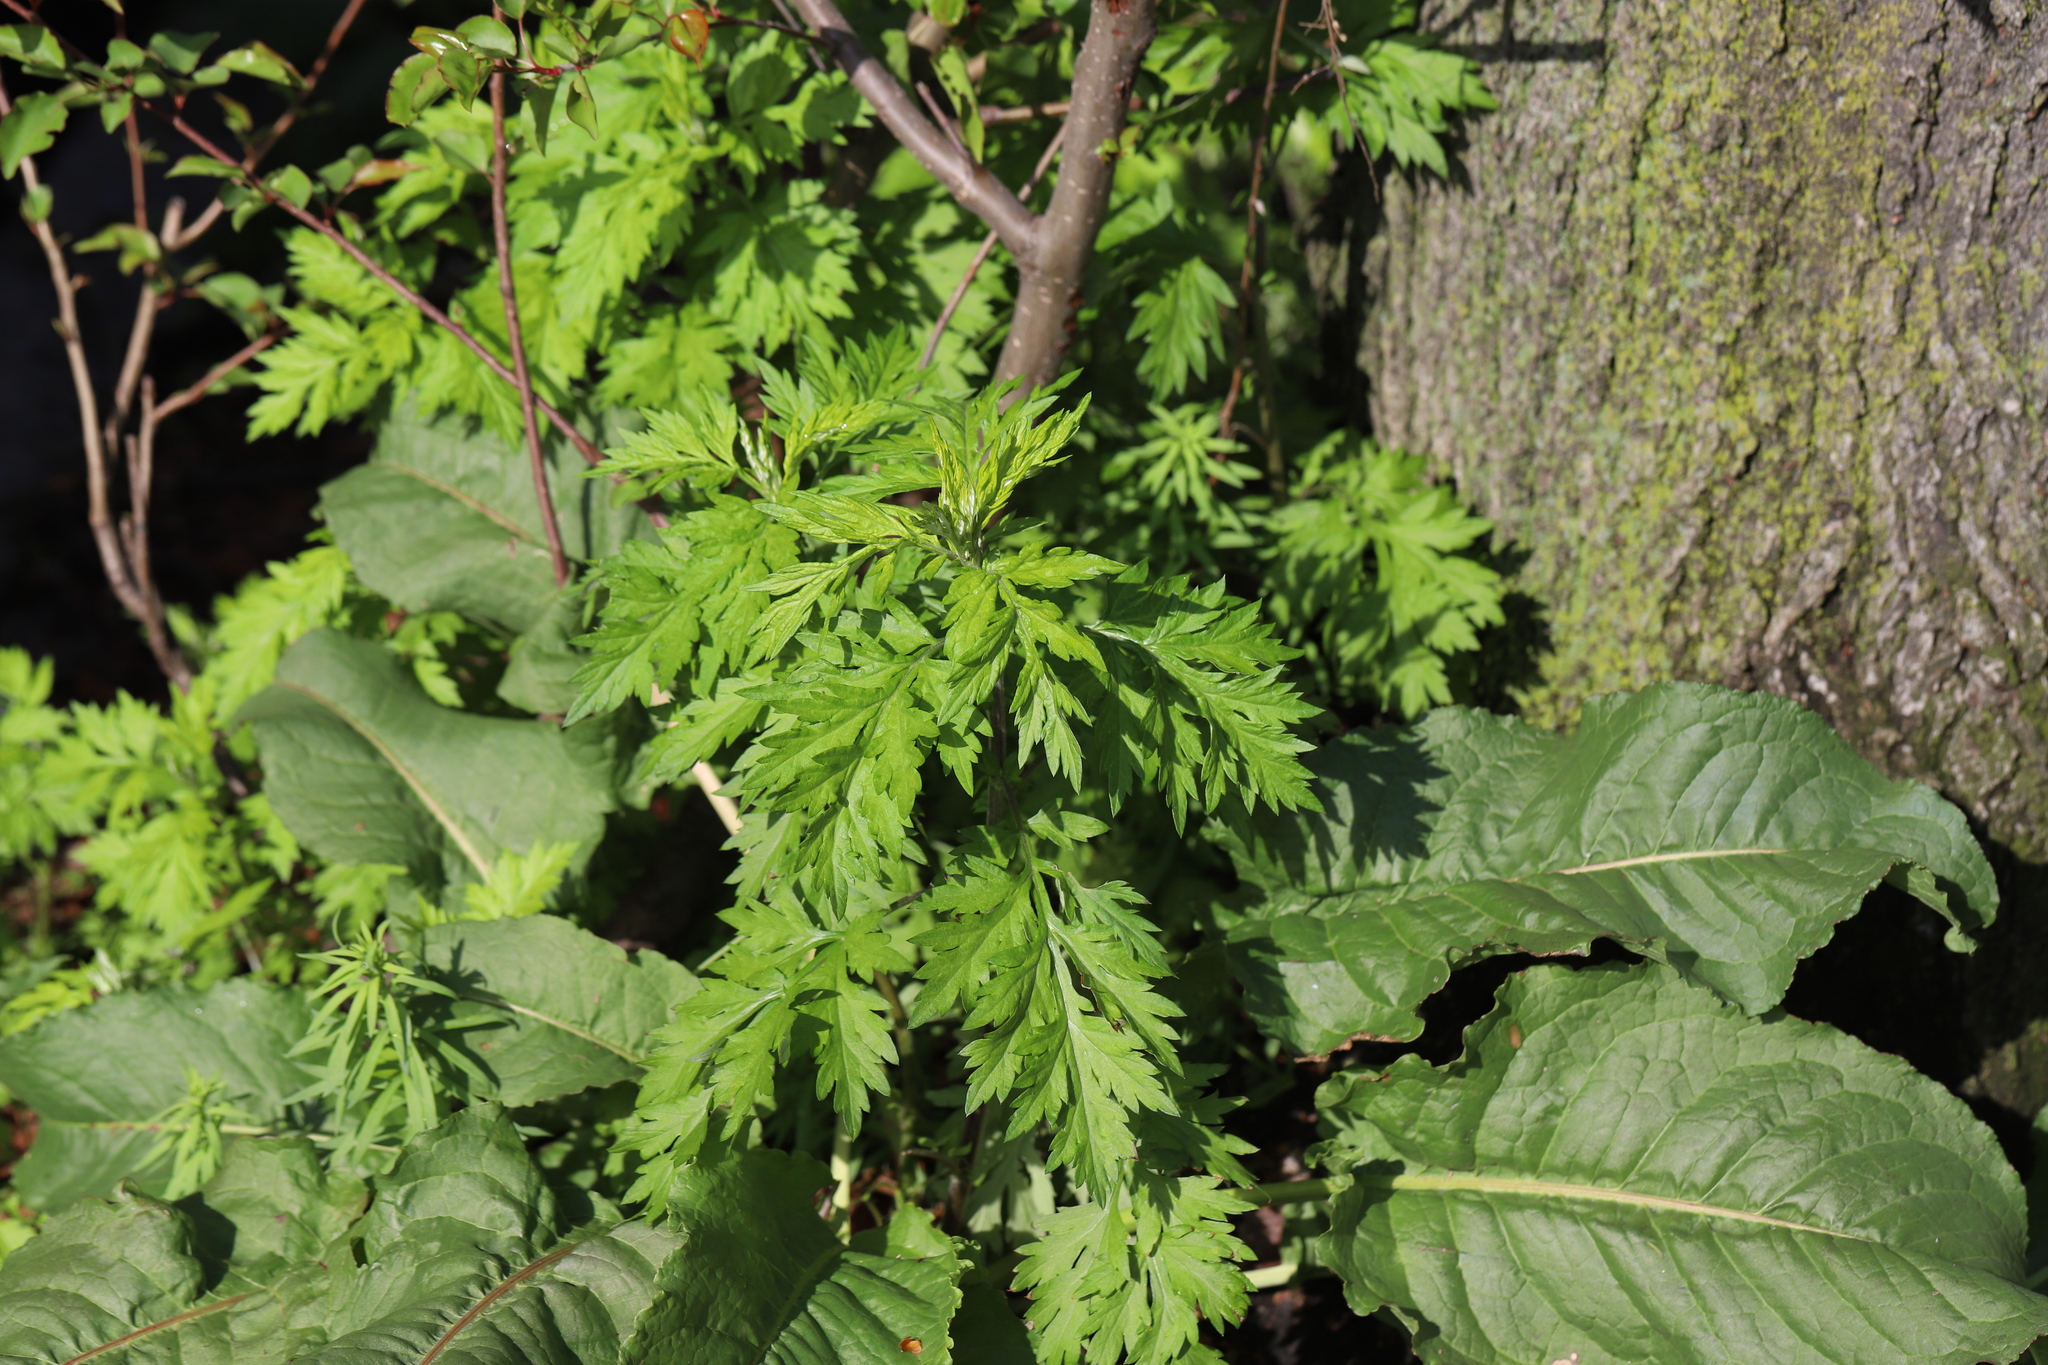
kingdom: Plantae
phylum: Tracheophyta
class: Magnoliopsida
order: Asterales
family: Asteraceae
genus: Artemisia
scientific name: Artemisia vulgaris
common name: Mugwort
